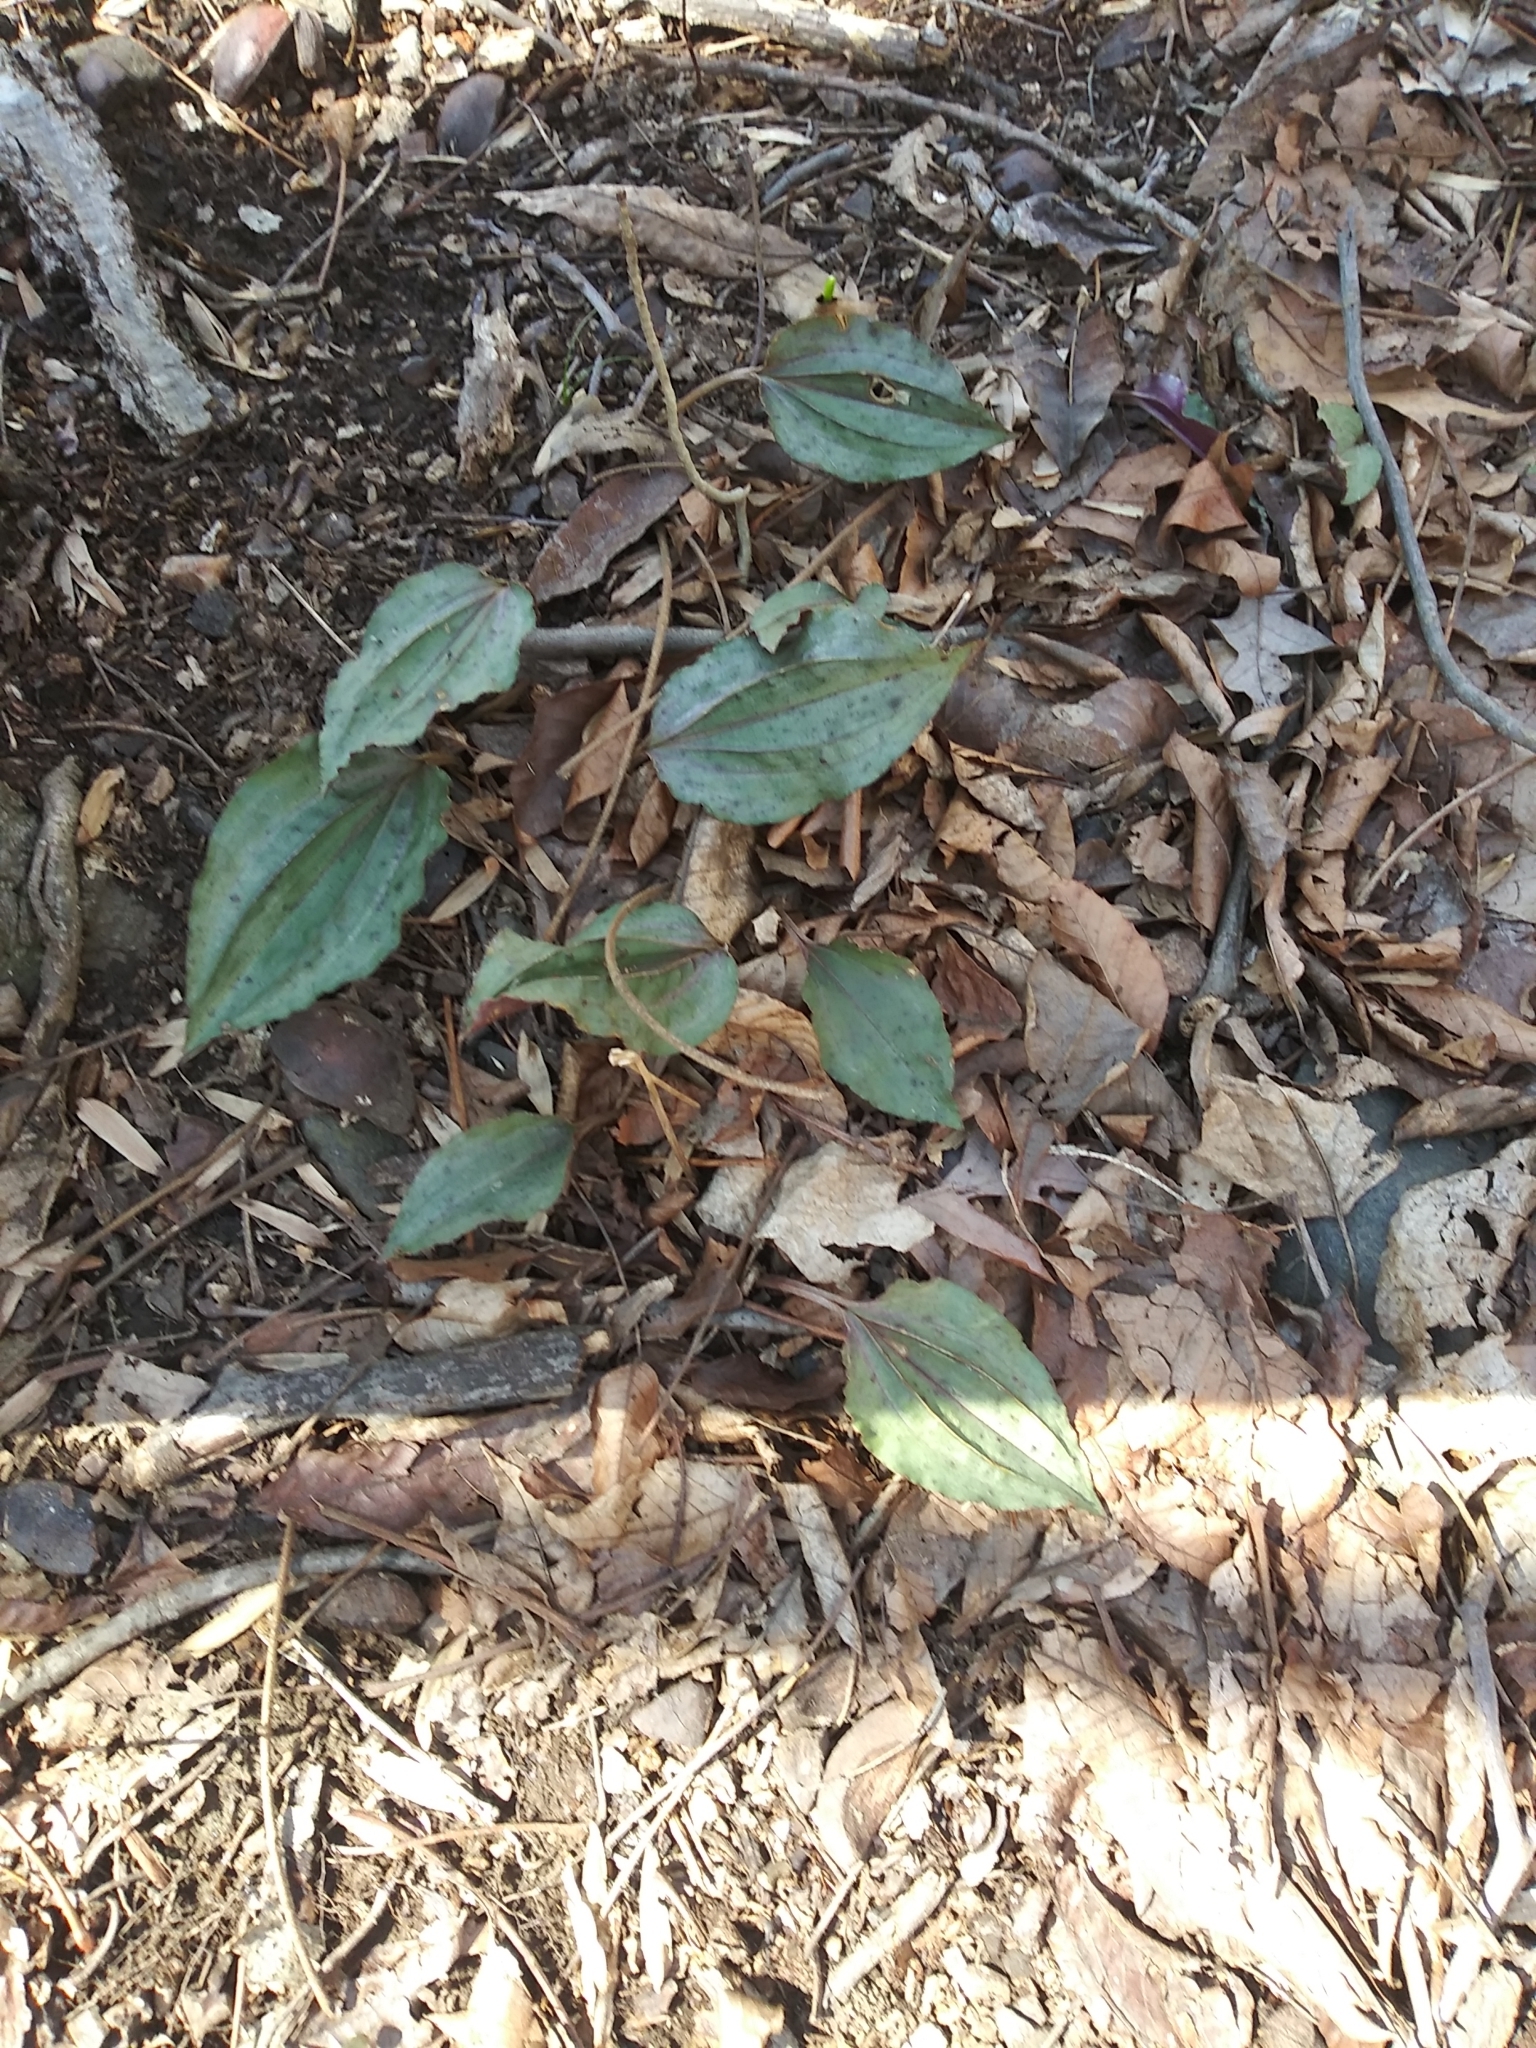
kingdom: Plantae
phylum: Tracheophyta
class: Liliopsida
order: Asparagales
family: Orchidaceae
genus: Tipularia
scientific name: Tipularia discolor
